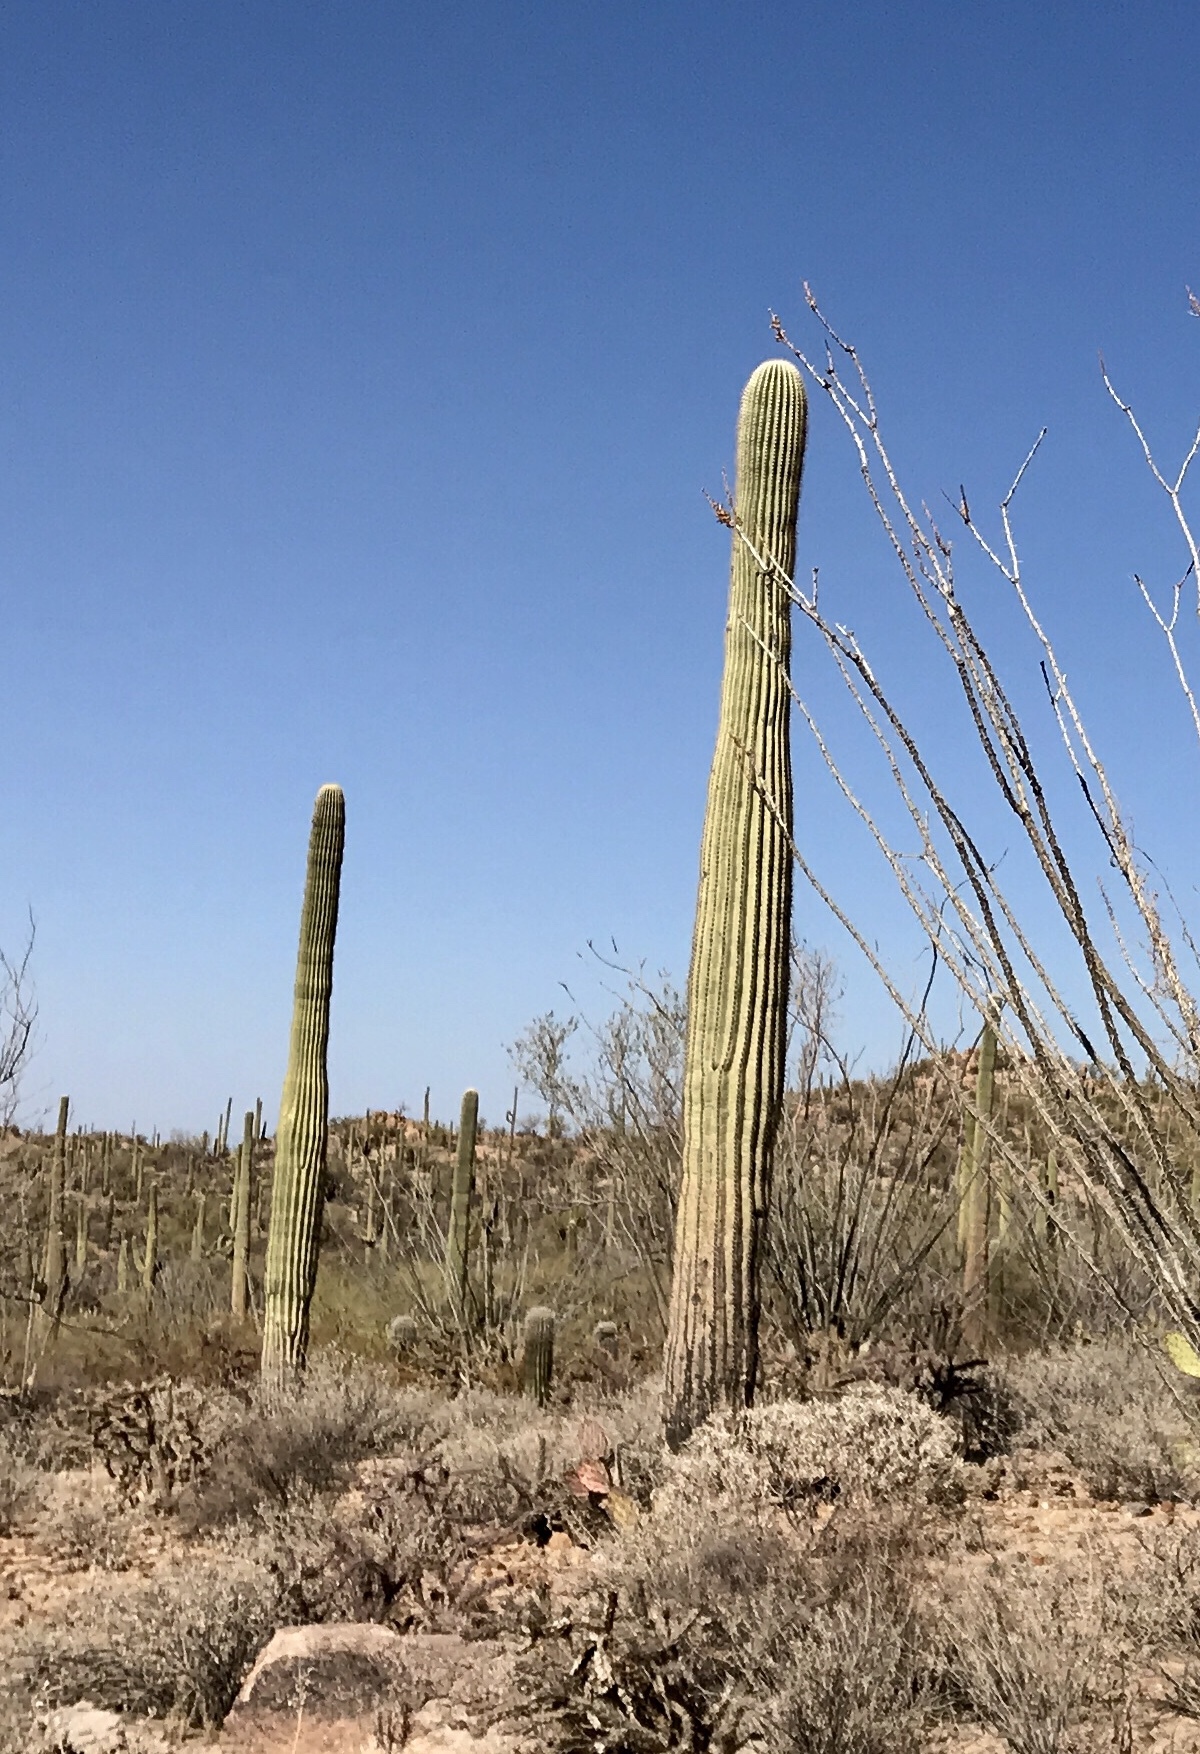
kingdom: Plantae
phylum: Tracheophyta
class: Magnoliopsida
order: Caryophyllales
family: Cactaceae
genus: Carnegiea
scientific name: Carnegiea gigantea
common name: Saguaro
